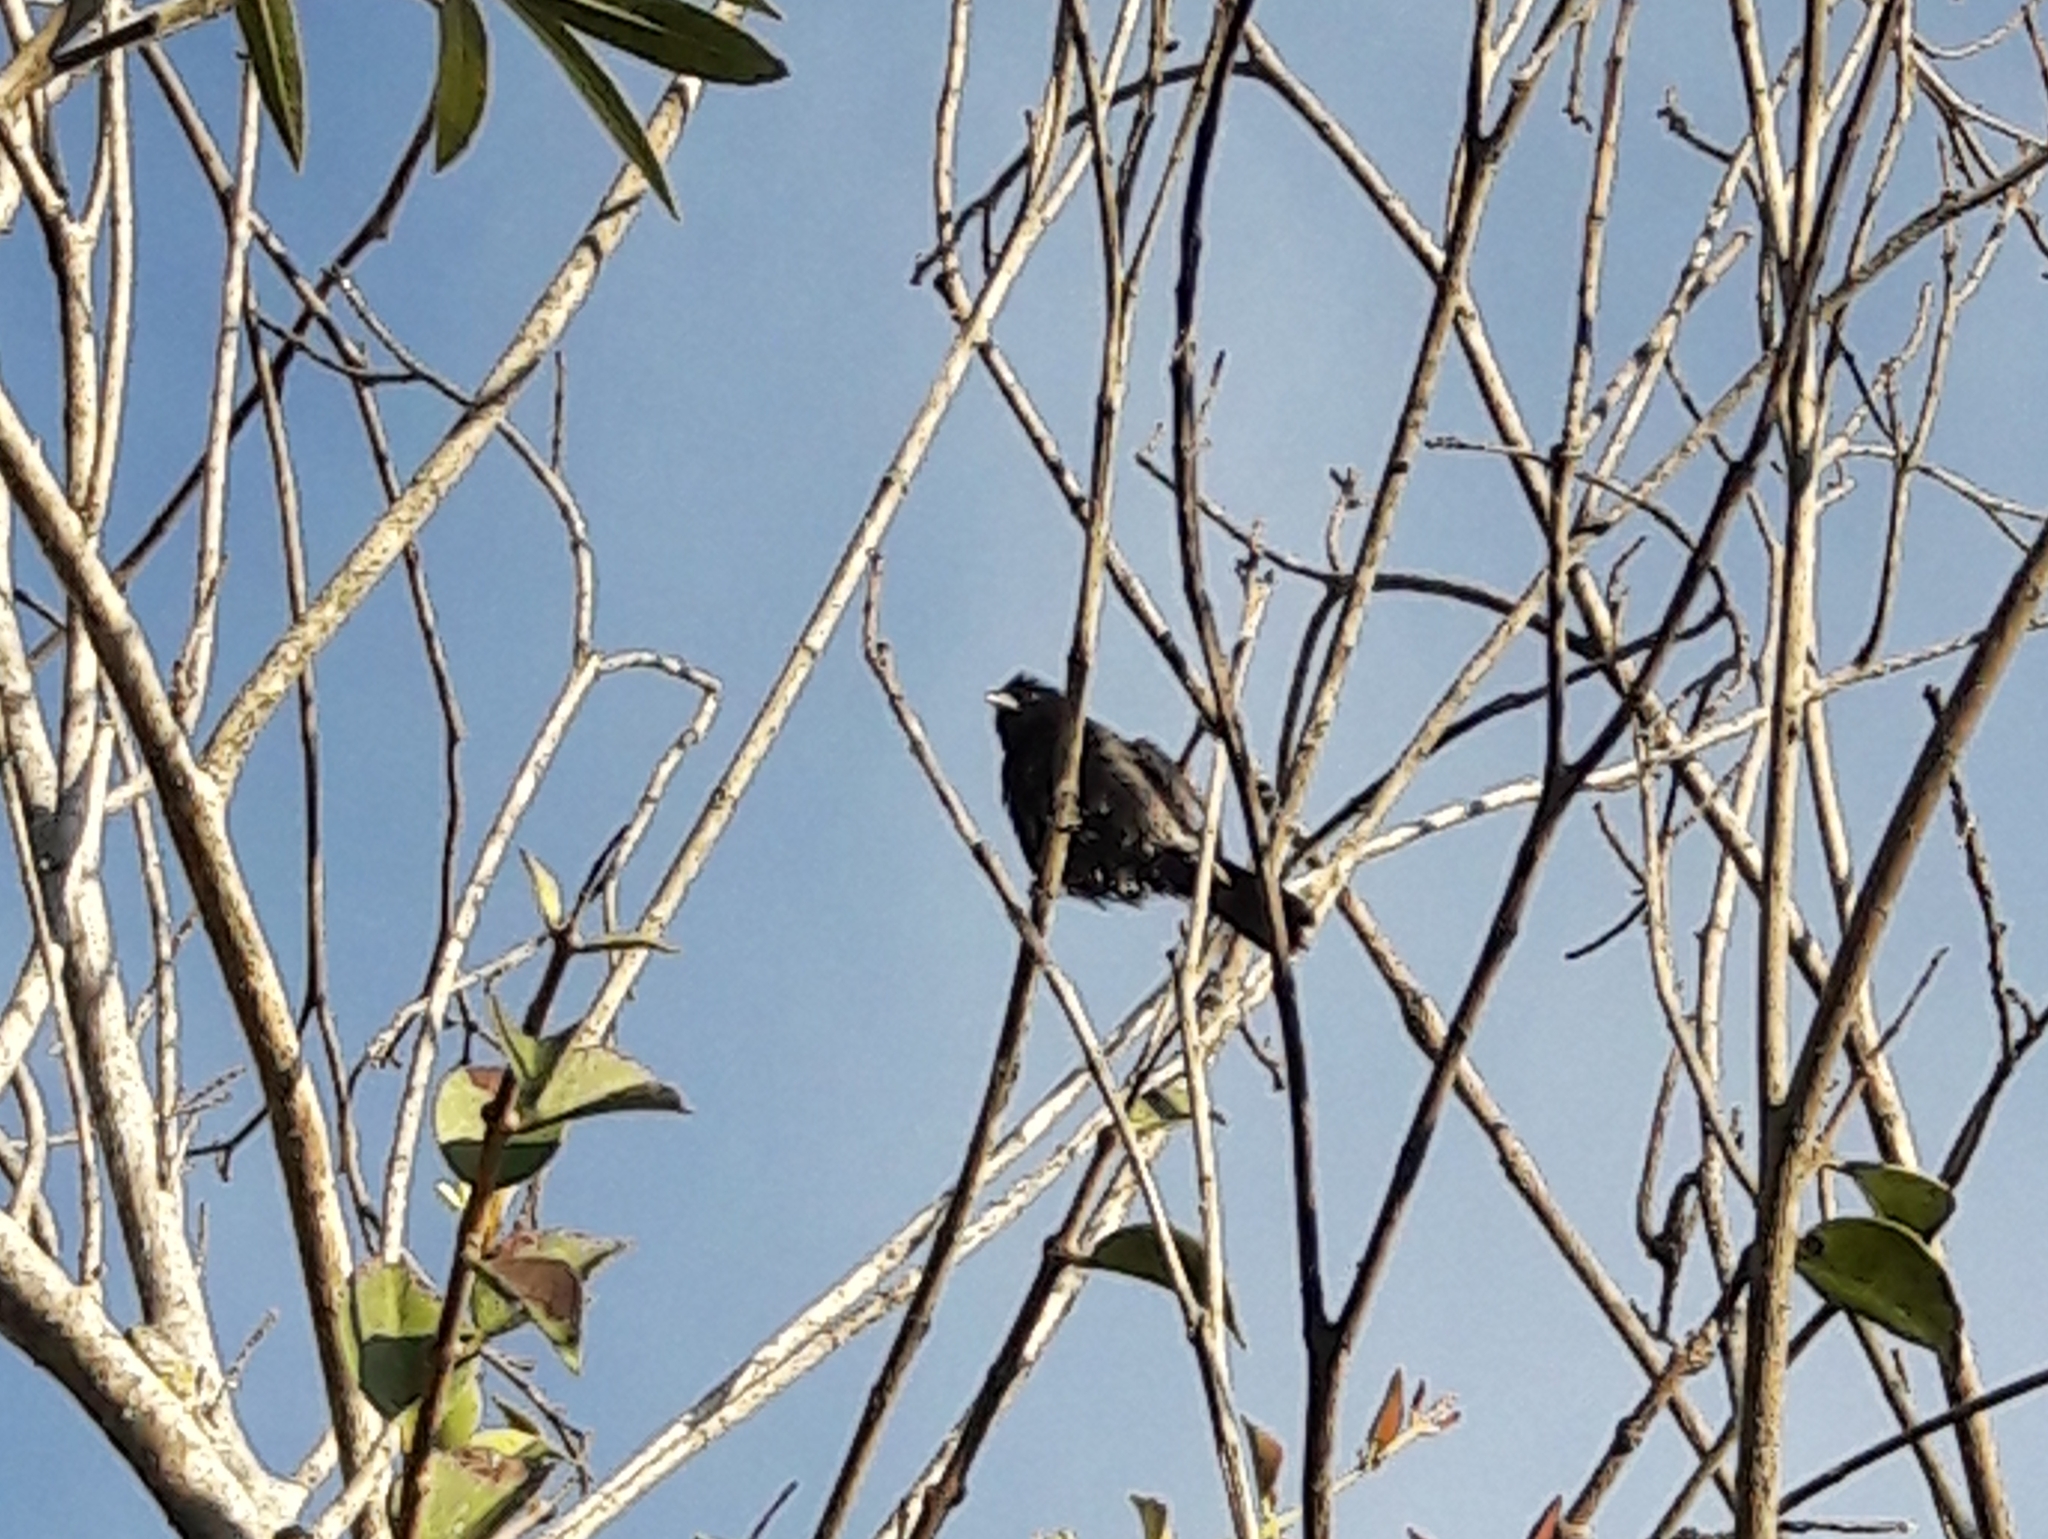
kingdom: Animalia
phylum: Chordata
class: Aves
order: Passeriformes
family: Thraupidae
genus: Volatinia
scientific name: Volatinia jacarina
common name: Blue-black grassquit
